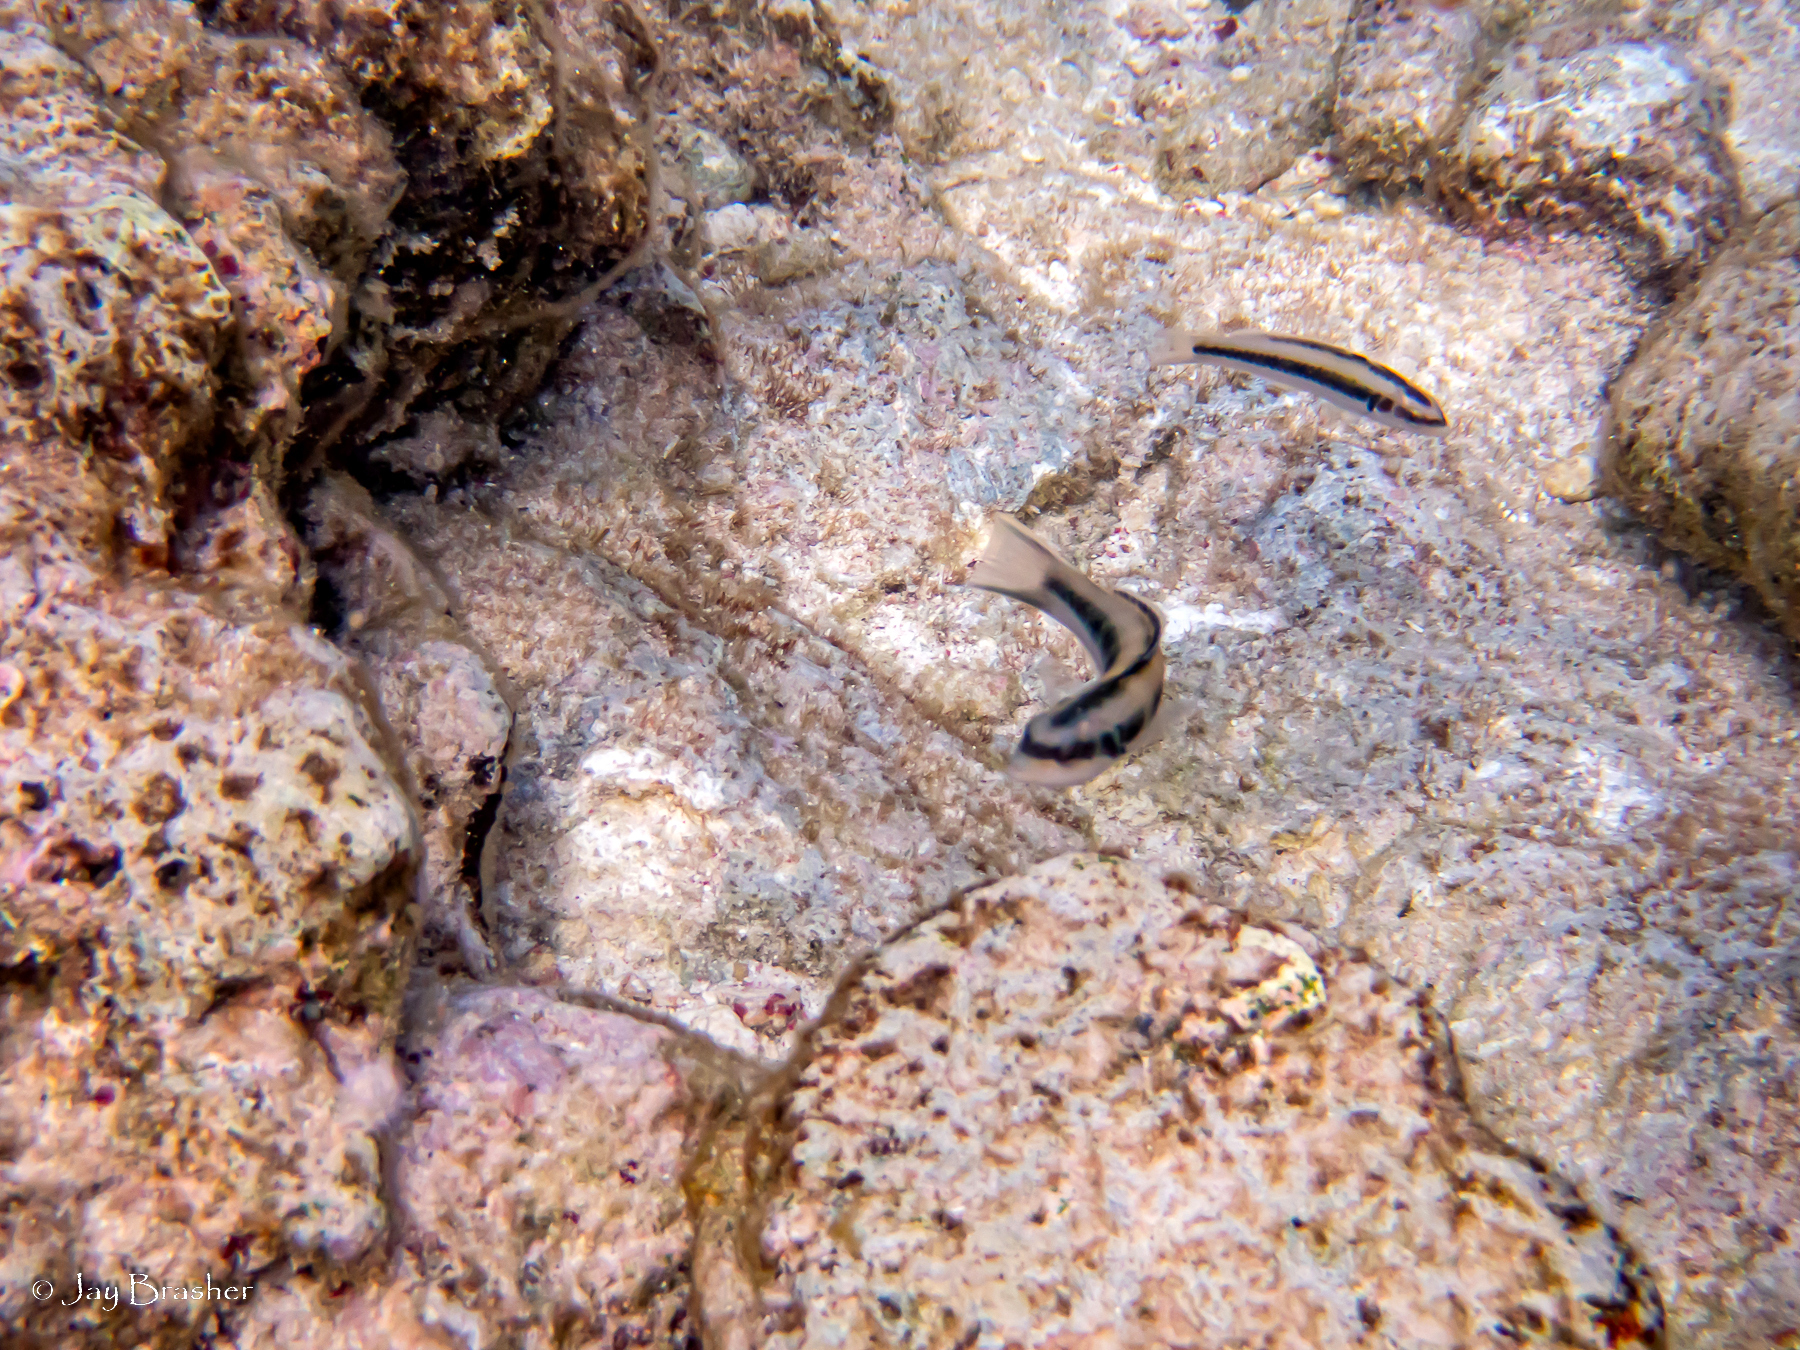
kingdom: Animalia
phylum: Chordata
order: Perciformes
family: Labridae
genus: Thalassoma
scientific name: Thalassoma bifasciatum
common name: Bluehead wrasse
